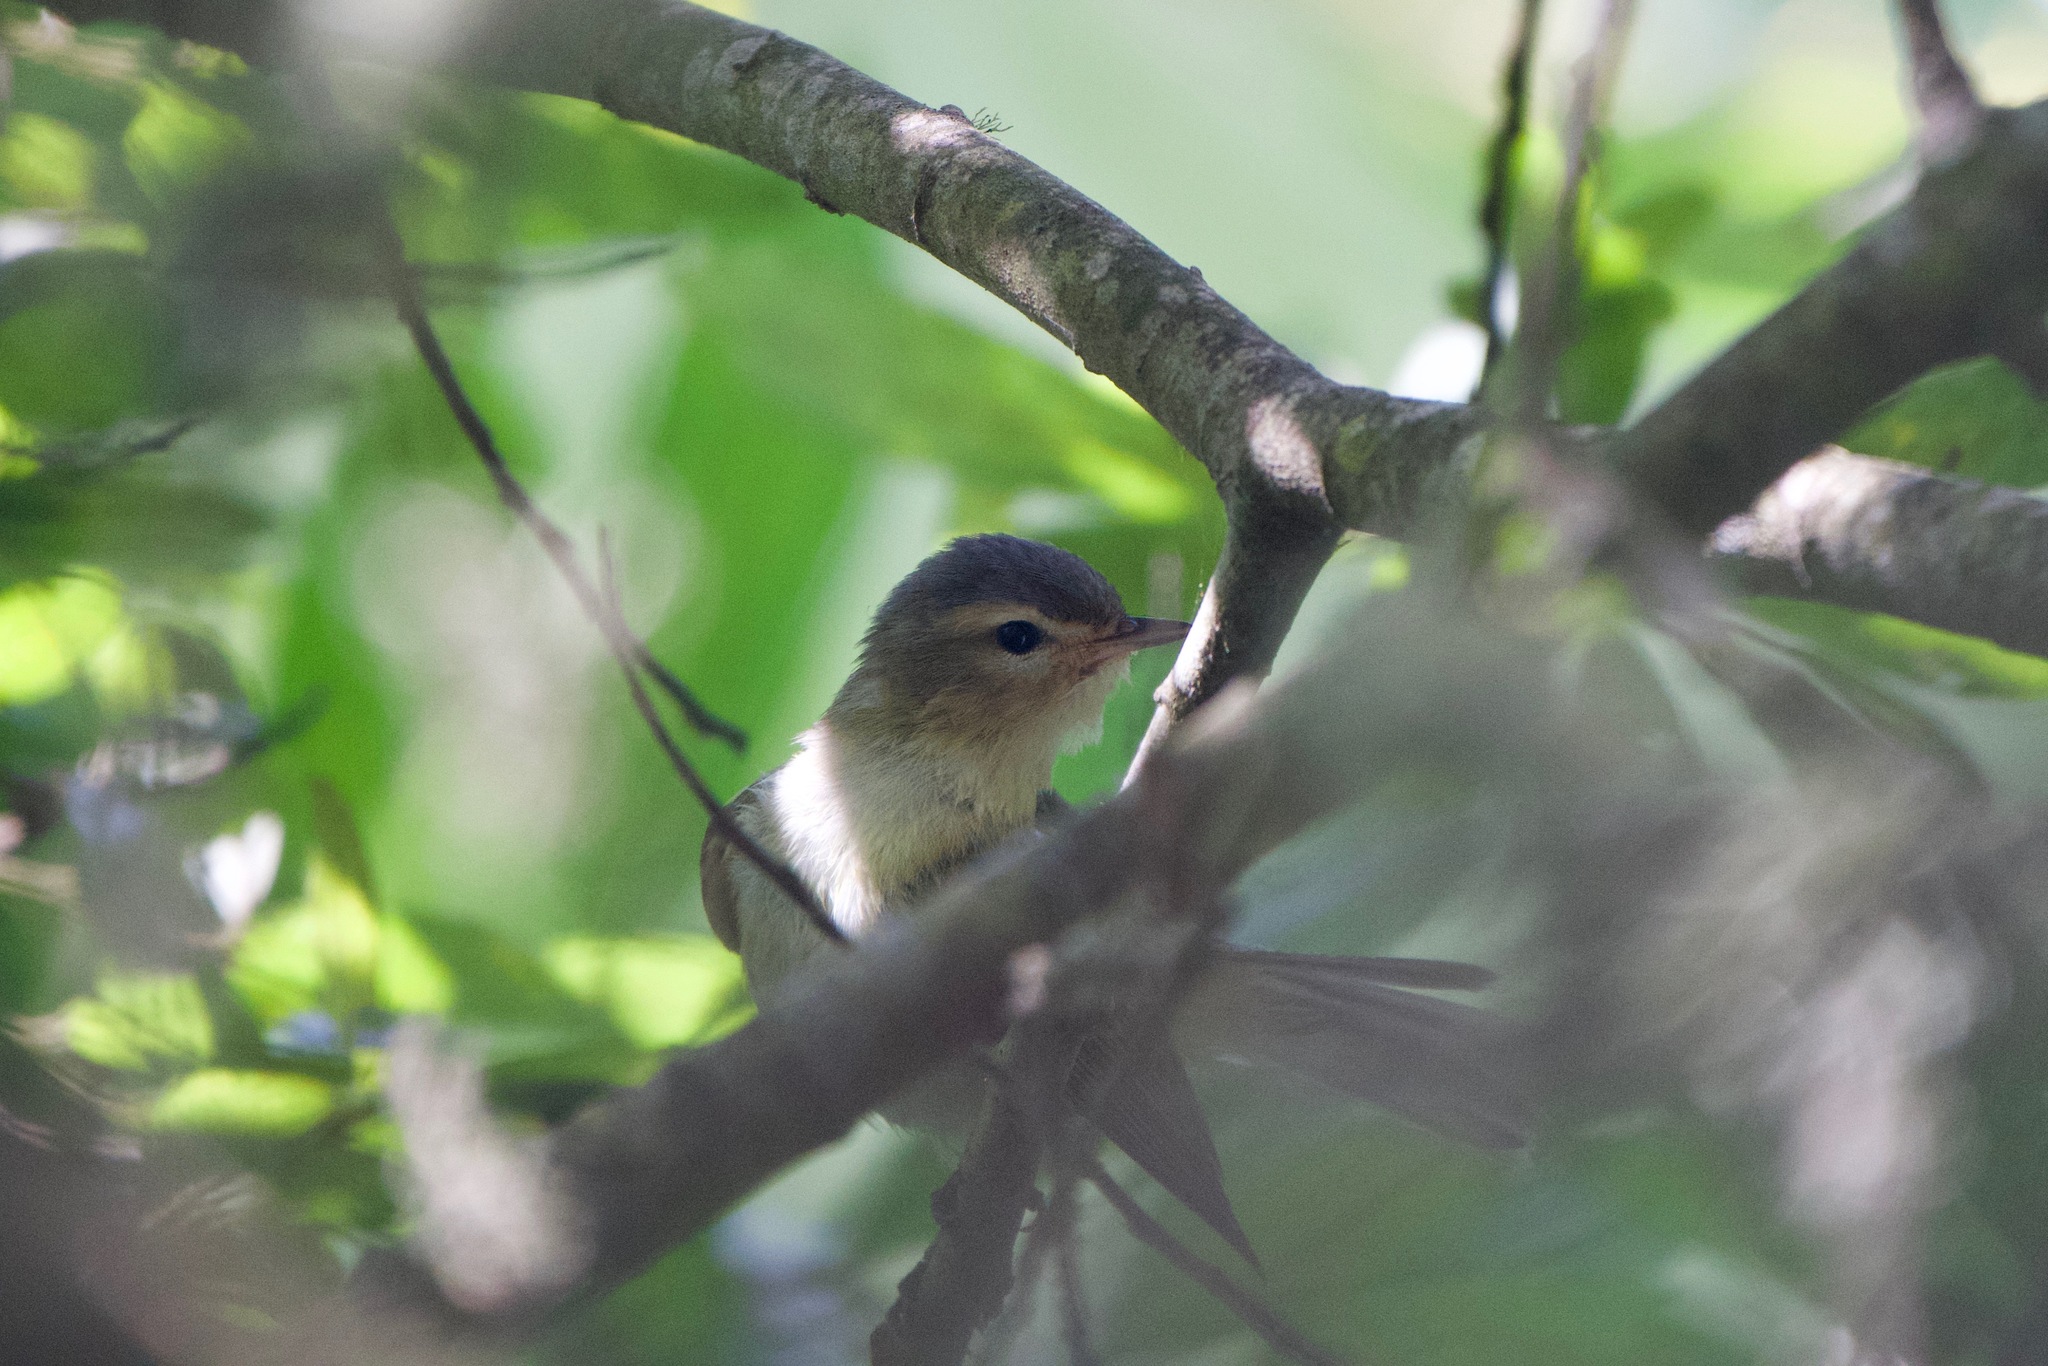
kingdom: Animalia
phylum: Chordata
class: Aves
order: Passeriformes
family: Vireonidae
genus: Vireo
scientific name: Vireo gilvus
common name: Warbling vireo
